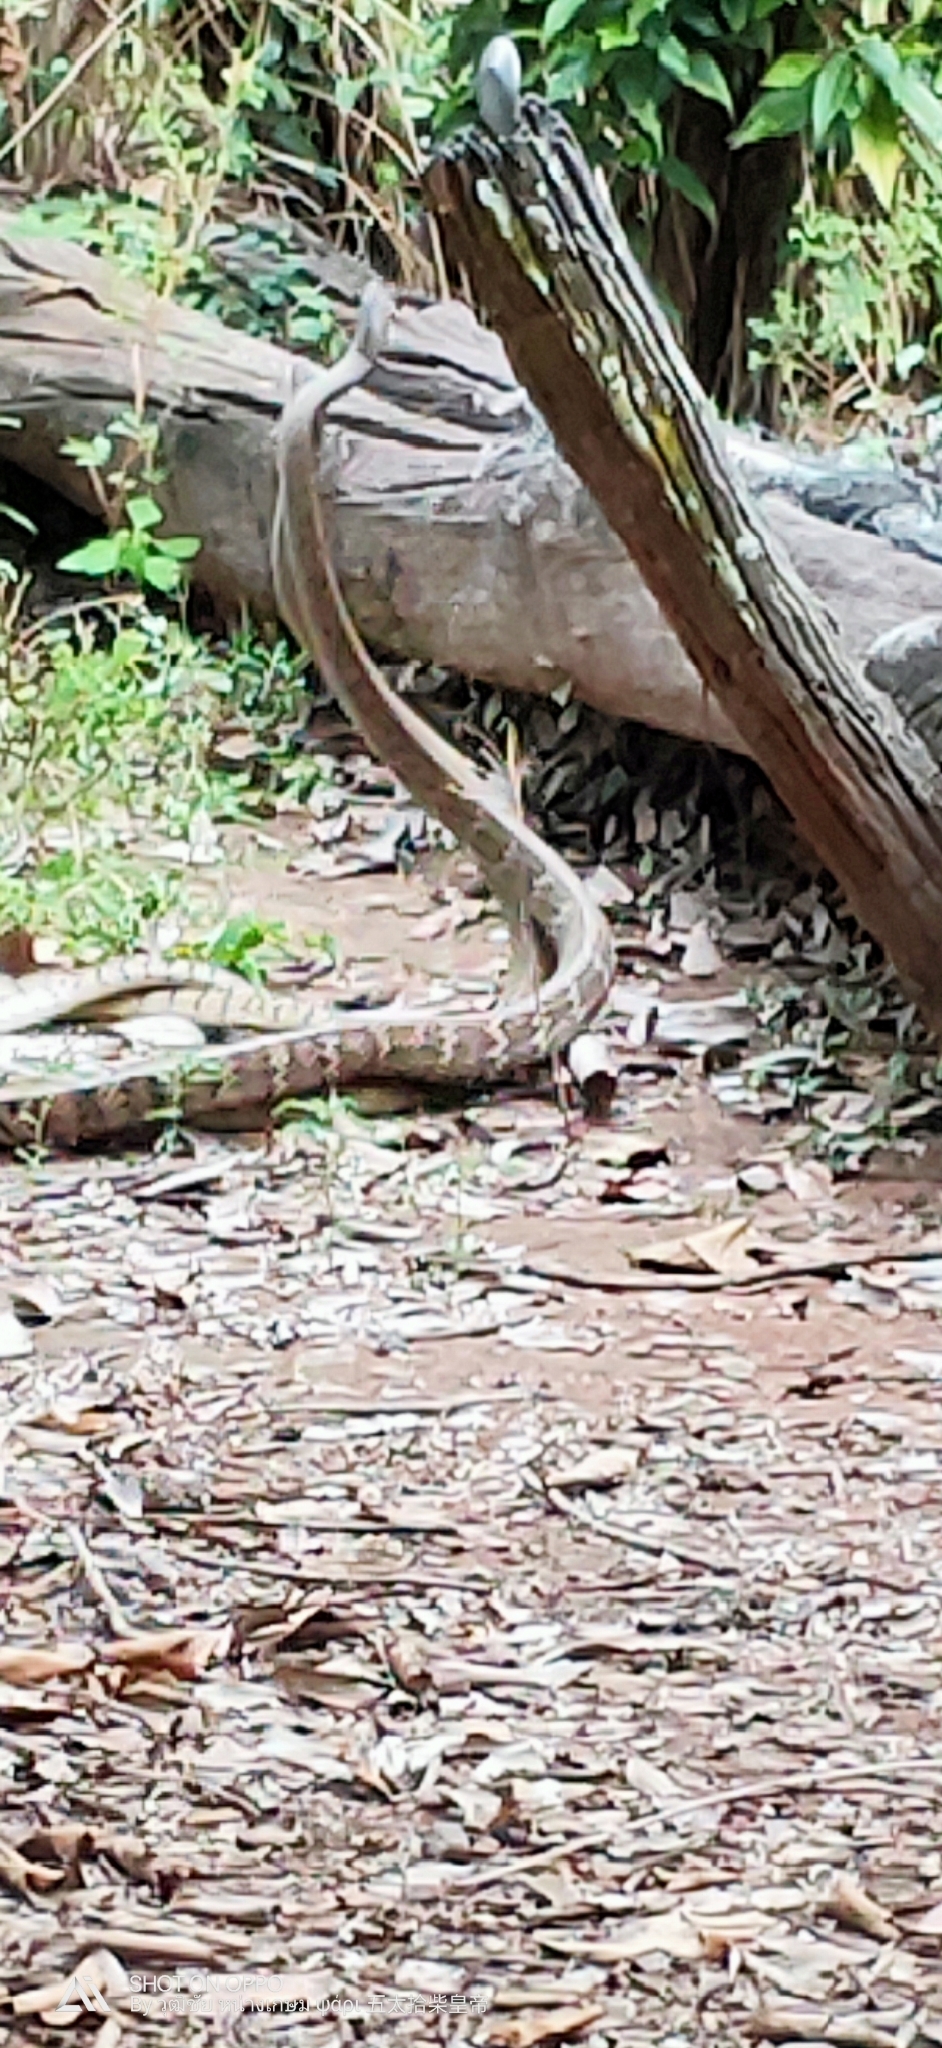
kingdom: Animalia
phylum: Chordata
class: Squamata
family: Colubridae
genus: Ptyas
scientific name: Ptyas mucosa
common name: Oriental ratsnake
